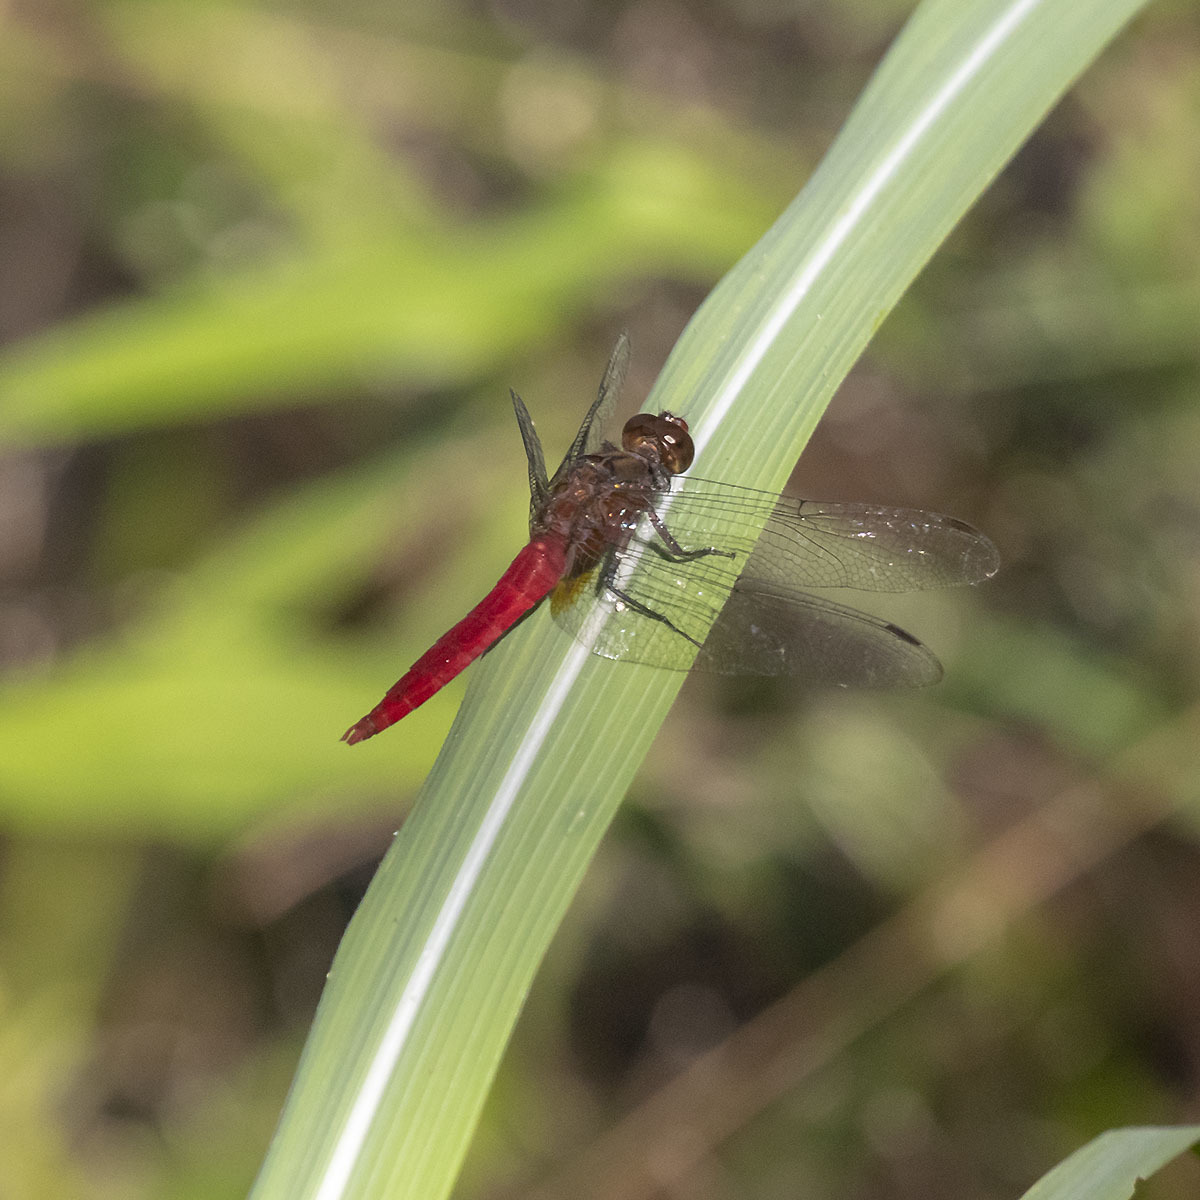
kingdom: Animalia
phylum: Arthropoda
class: Insecta
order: Odonata
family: Libellulidae
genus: Orthetrum
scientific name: Orthetrum chrysis
